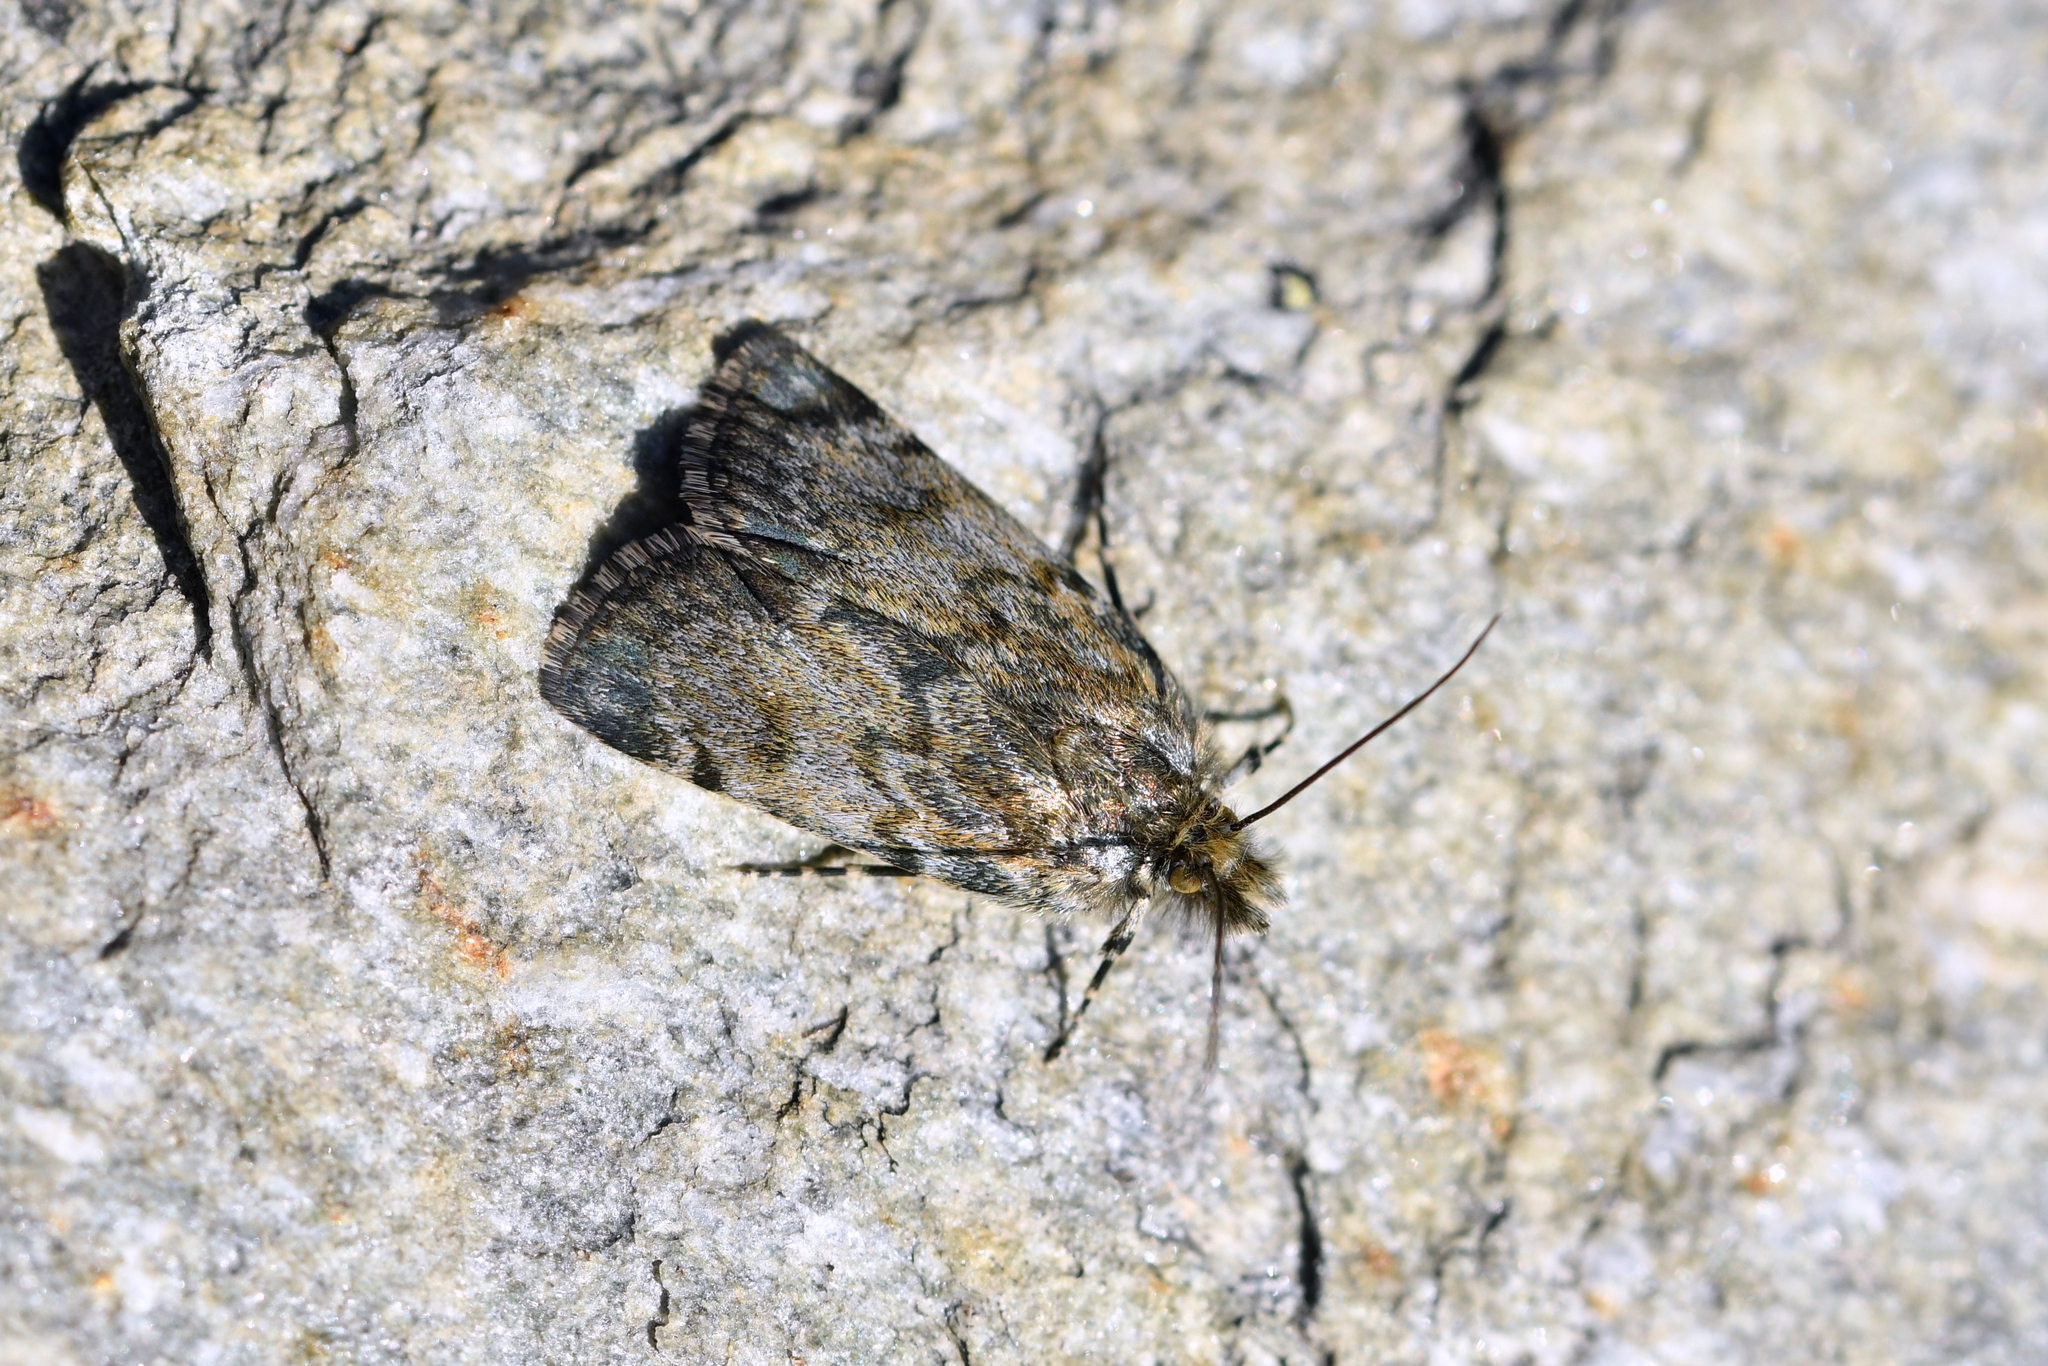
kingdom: Animalia
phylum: Arthropoda
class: Insecta
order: Lepidoptera
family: Crambidae
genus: Tawhitia
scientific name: Tawhitia glaucophanes
